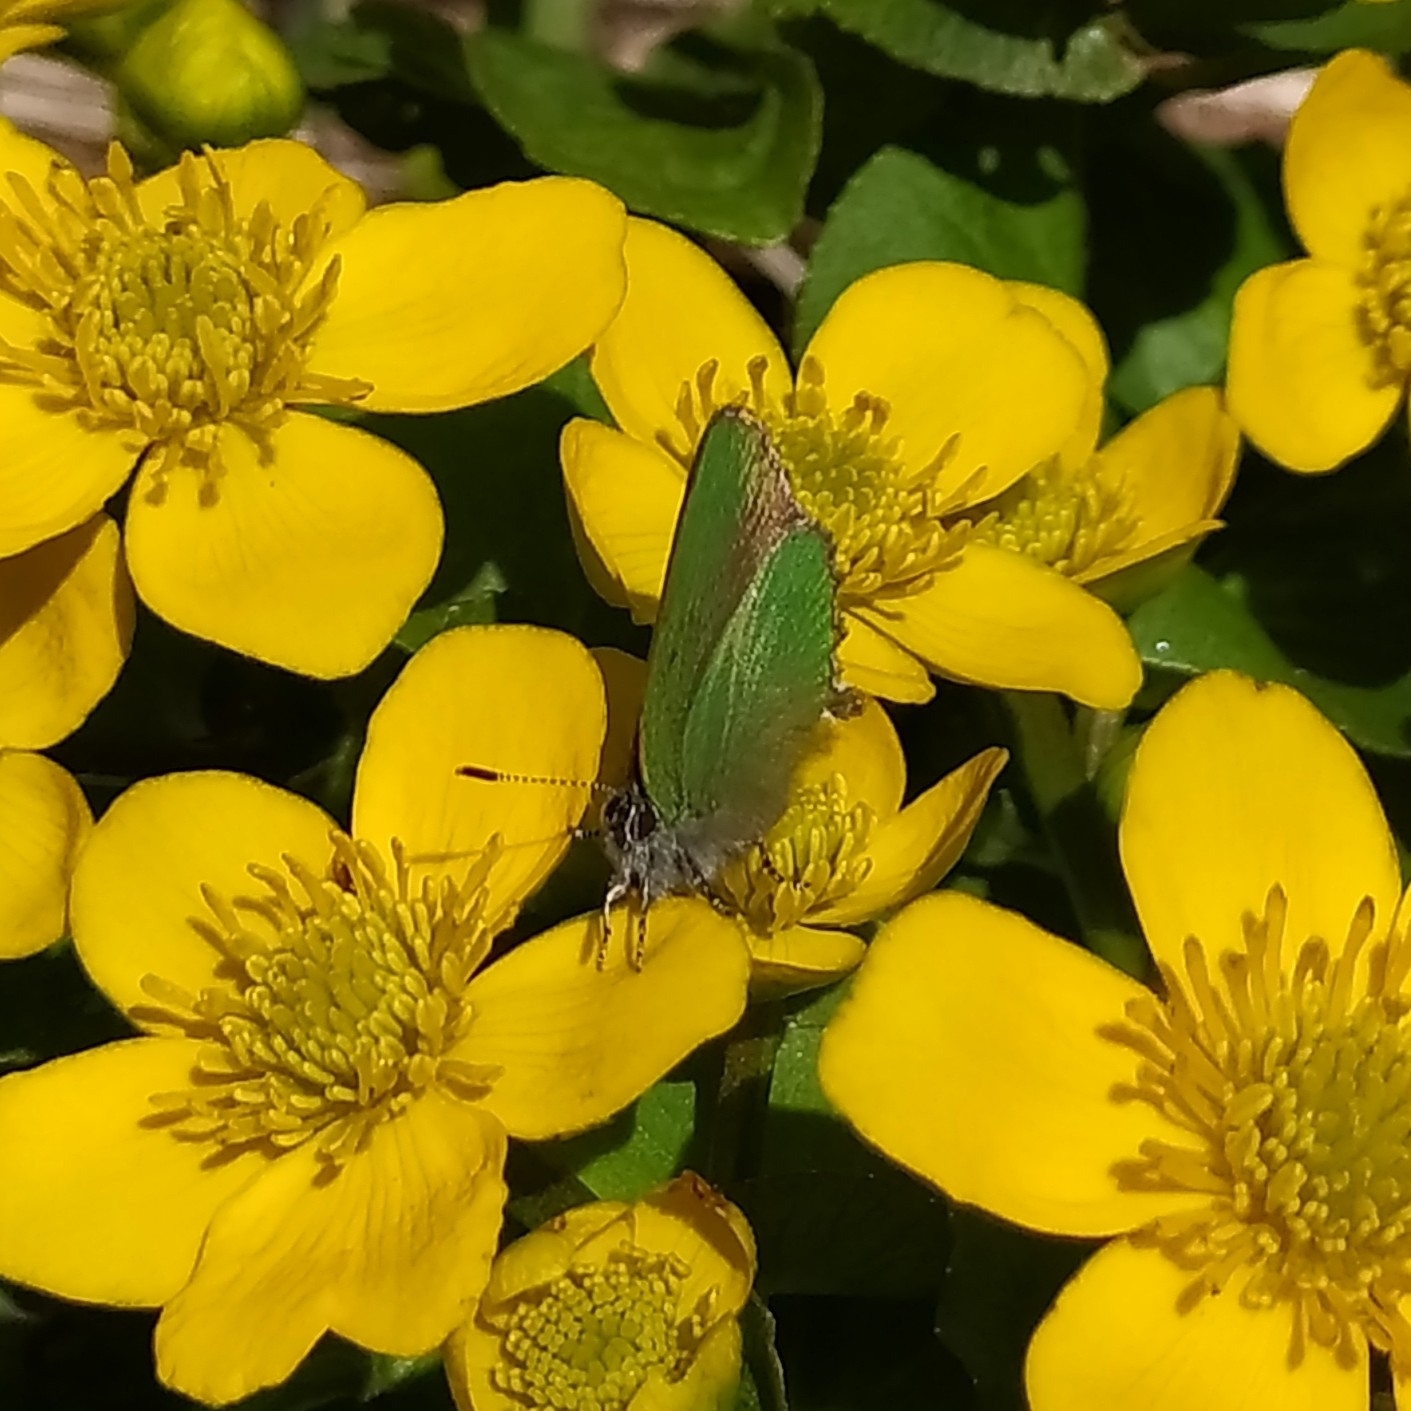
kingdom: Animalia
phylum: Arthropoda
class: Insecta
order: Lepidoptera
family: Lycaenidae
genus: Callophrys
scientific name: Callophrys rubi
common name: Green hairstreak
